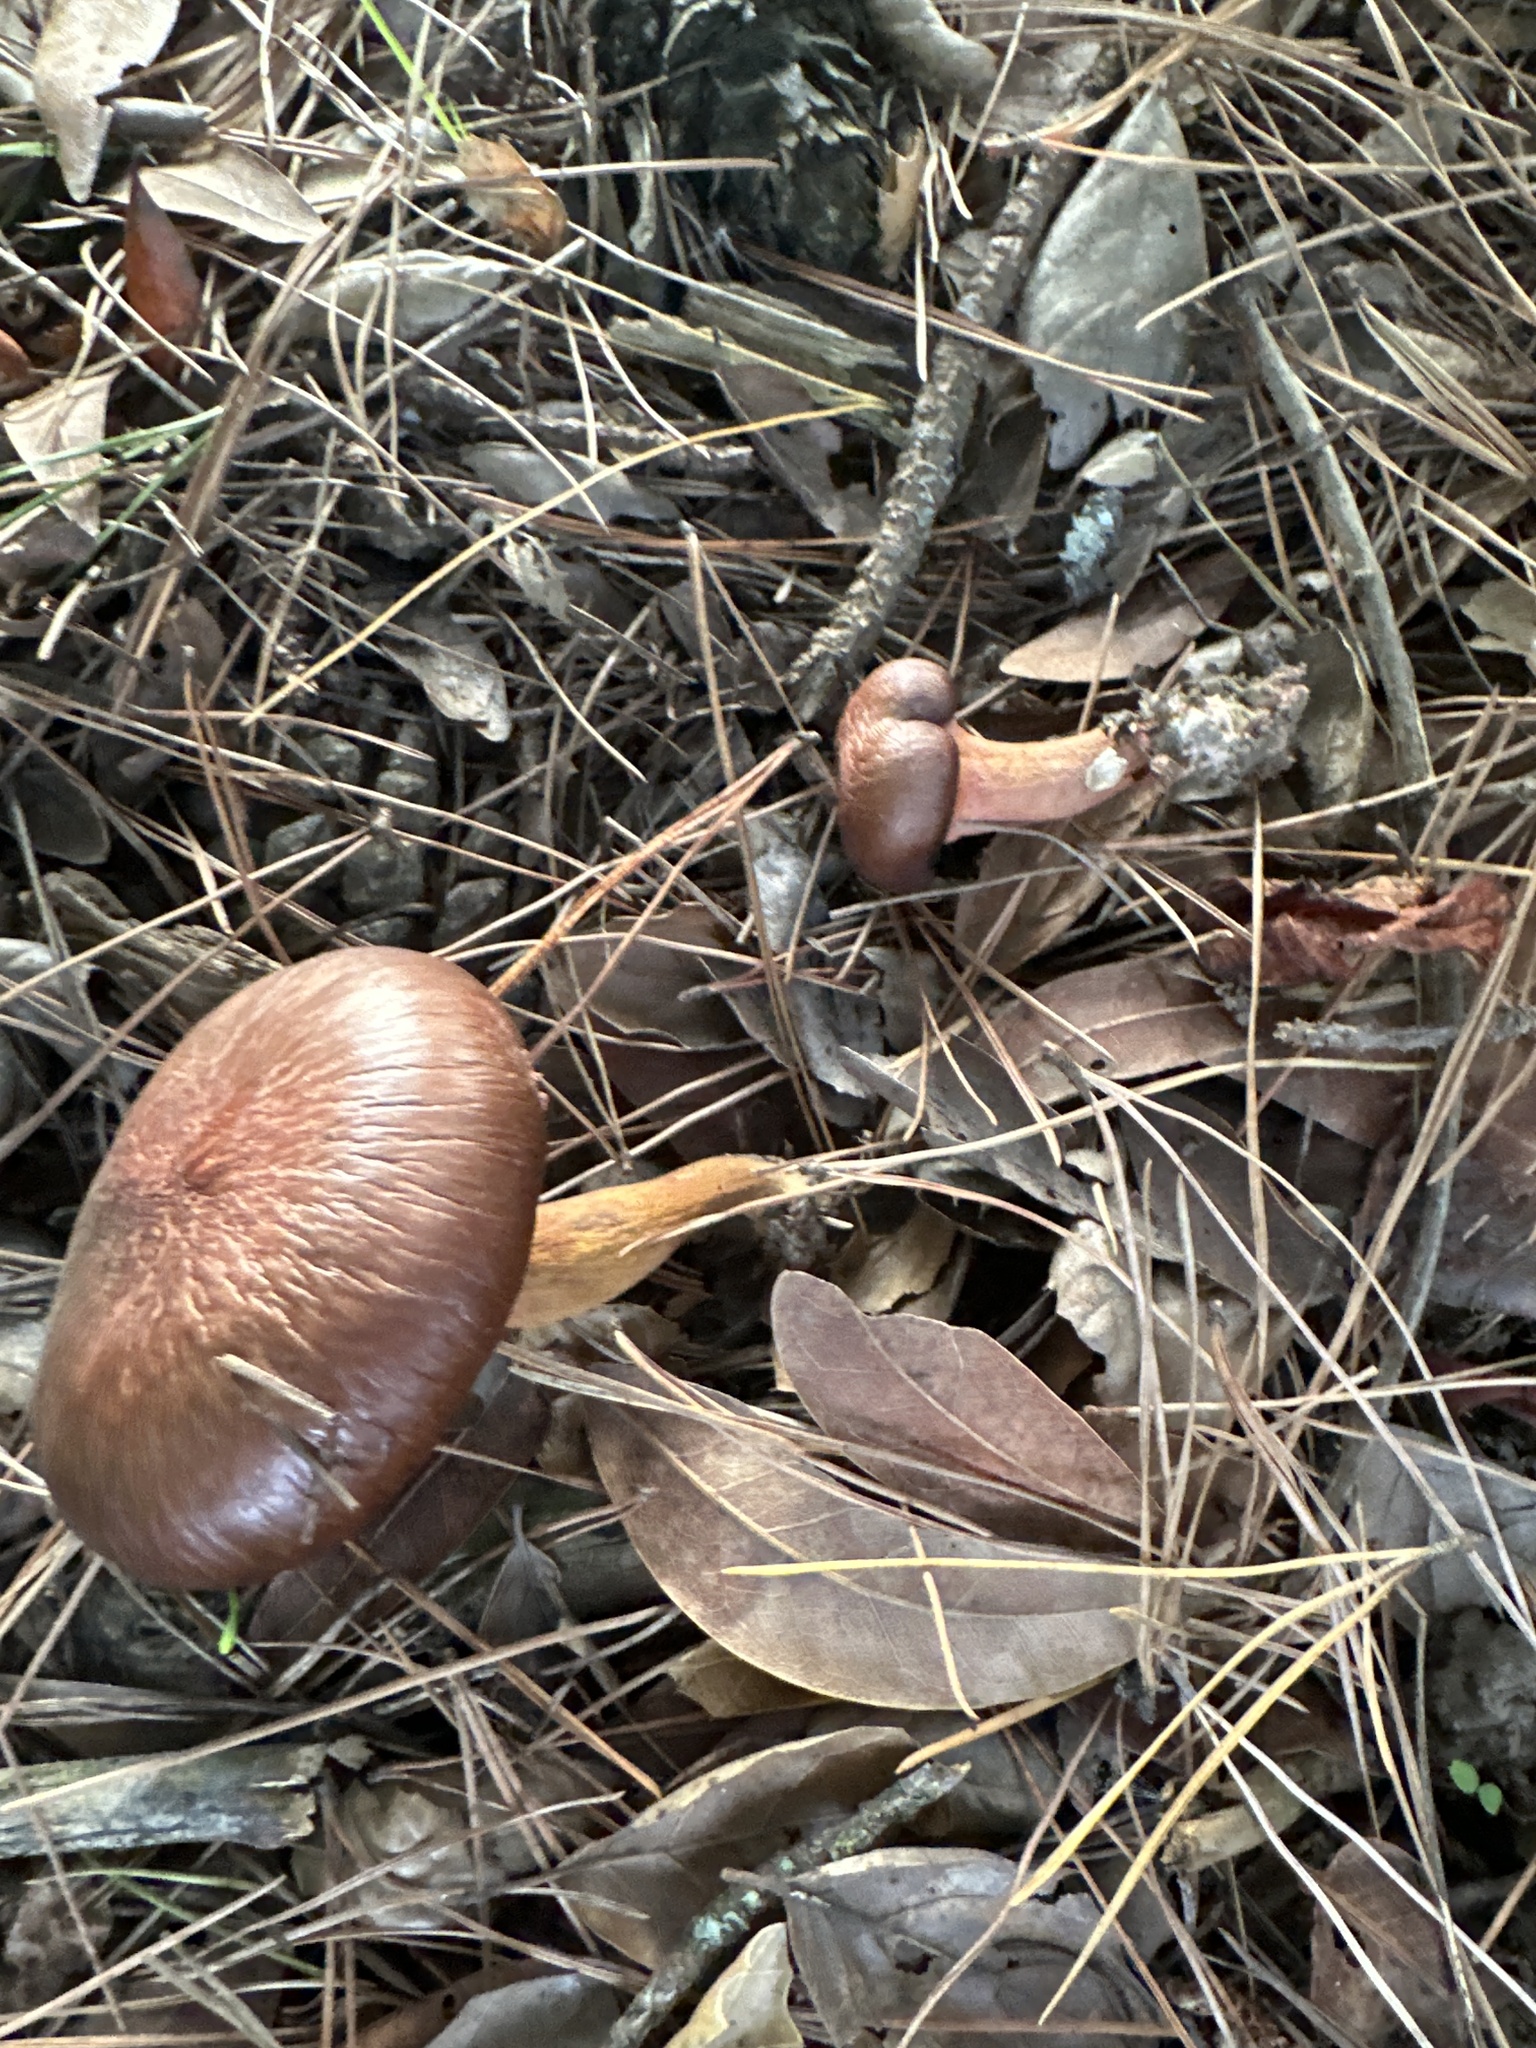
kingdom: Fungi
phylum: Basidiomycota
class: Agaricomycetes
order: Boletales
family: Gomphidiaceae
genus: Chroogomphus
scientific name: Chroogomphus vinicolor
